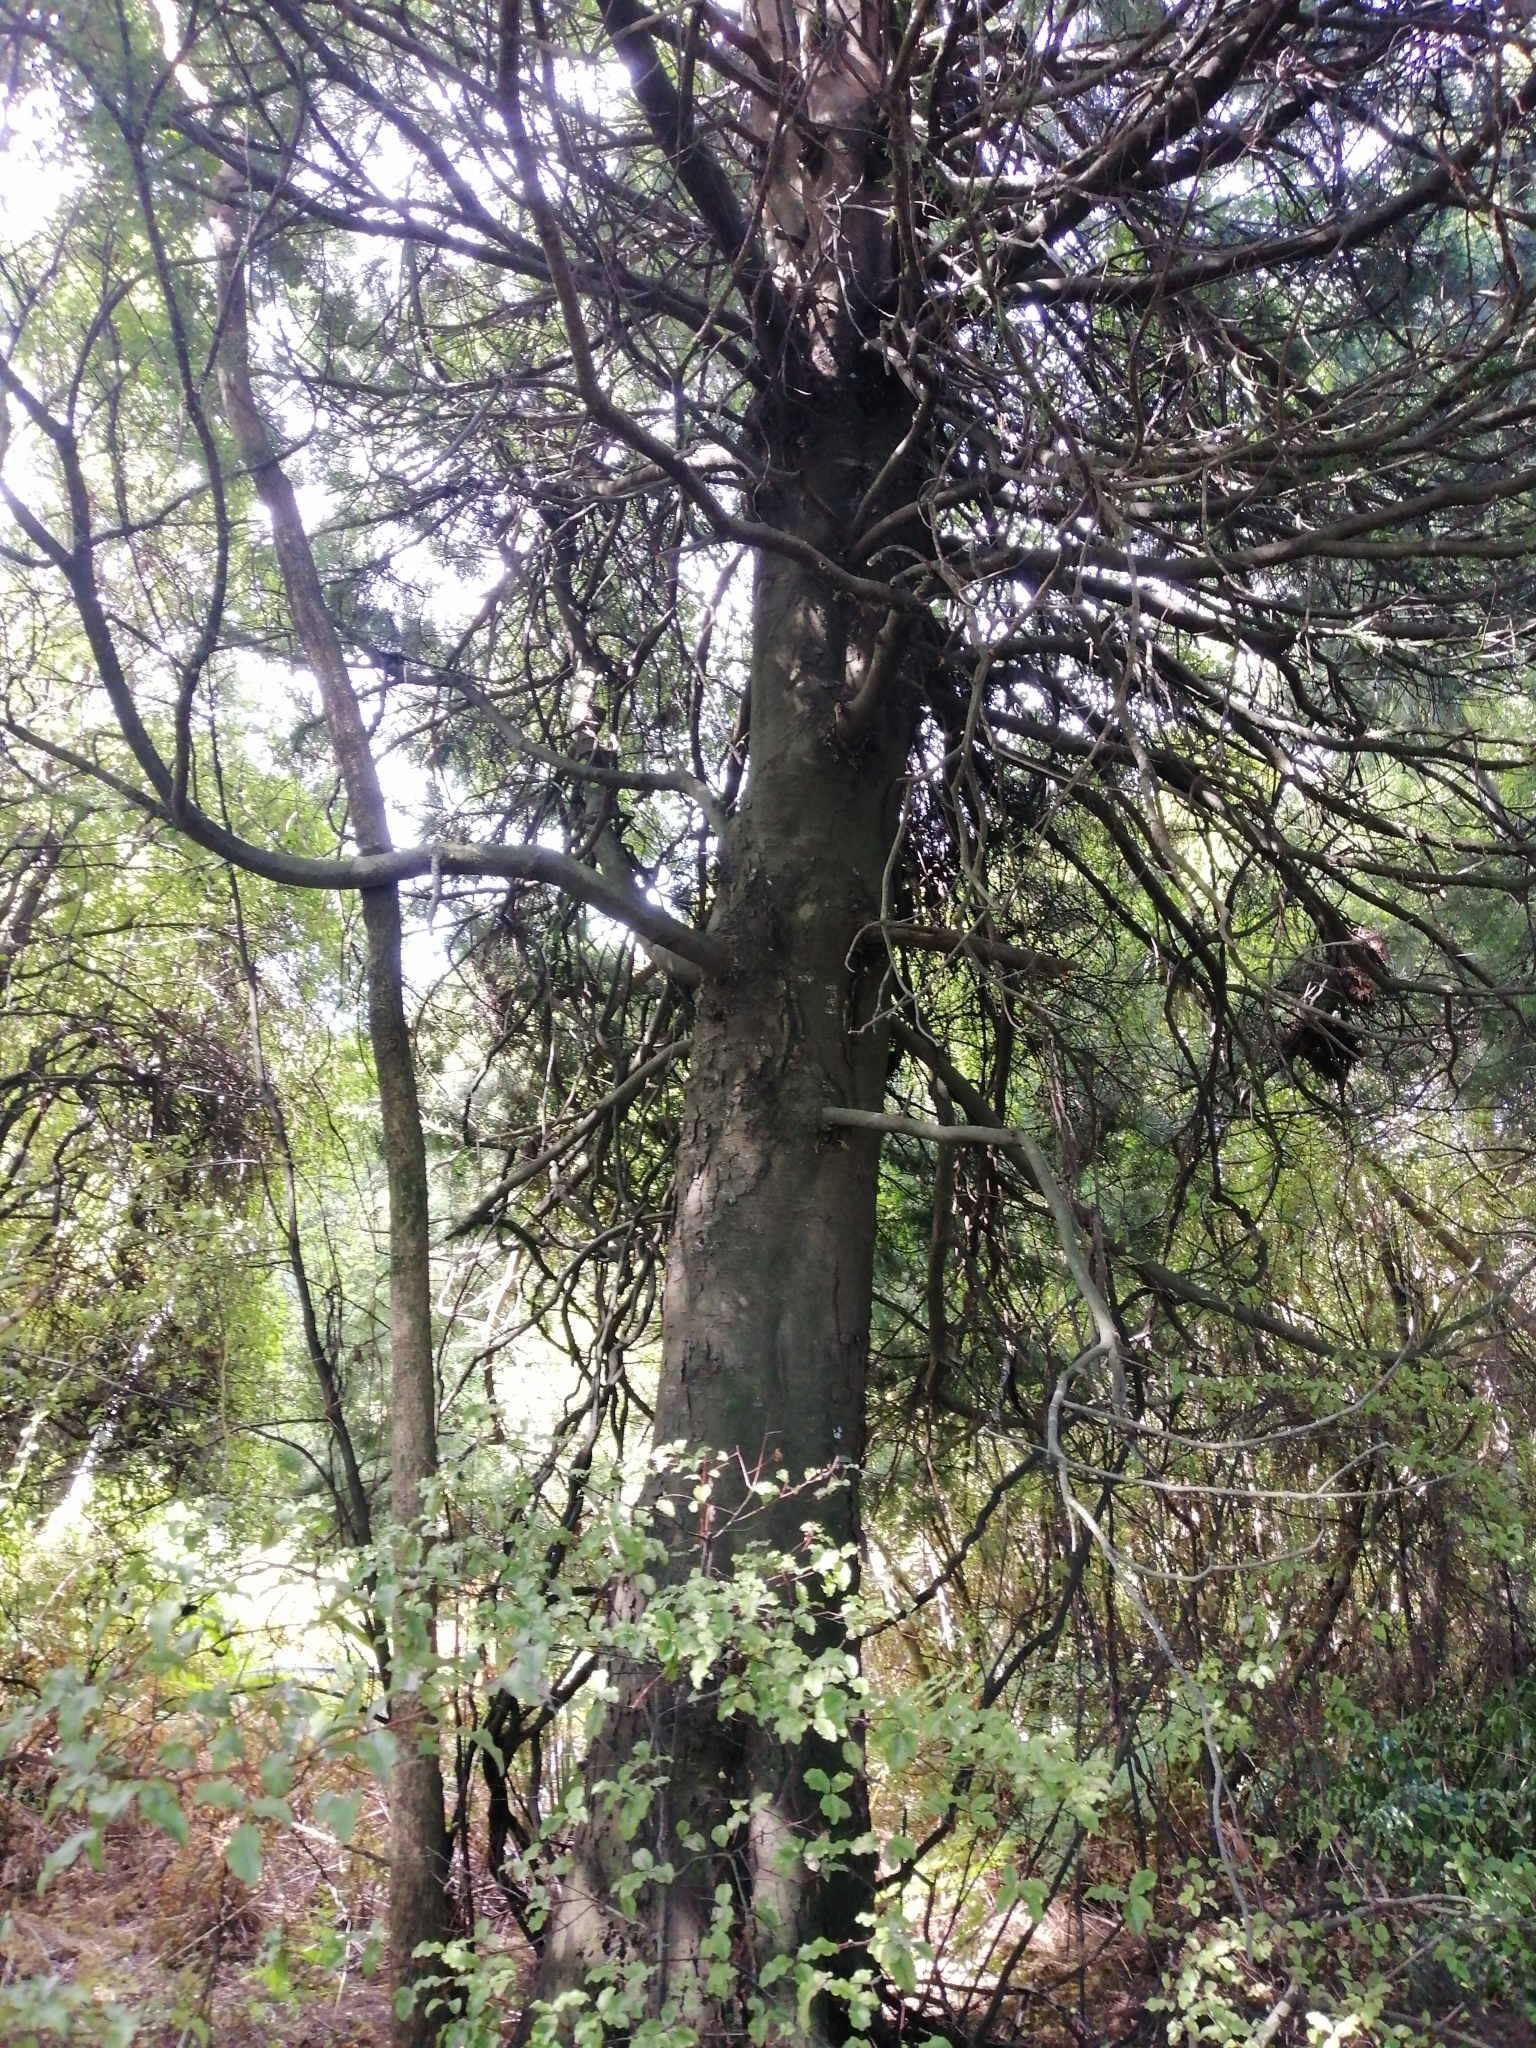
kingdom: Plantae
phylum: Tracheophyta
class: Pinopsida
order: Pinales
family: Podocarpaceae
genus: Dacrycarpus
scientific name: Dacrycarpus dacrydioides
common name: White pine
